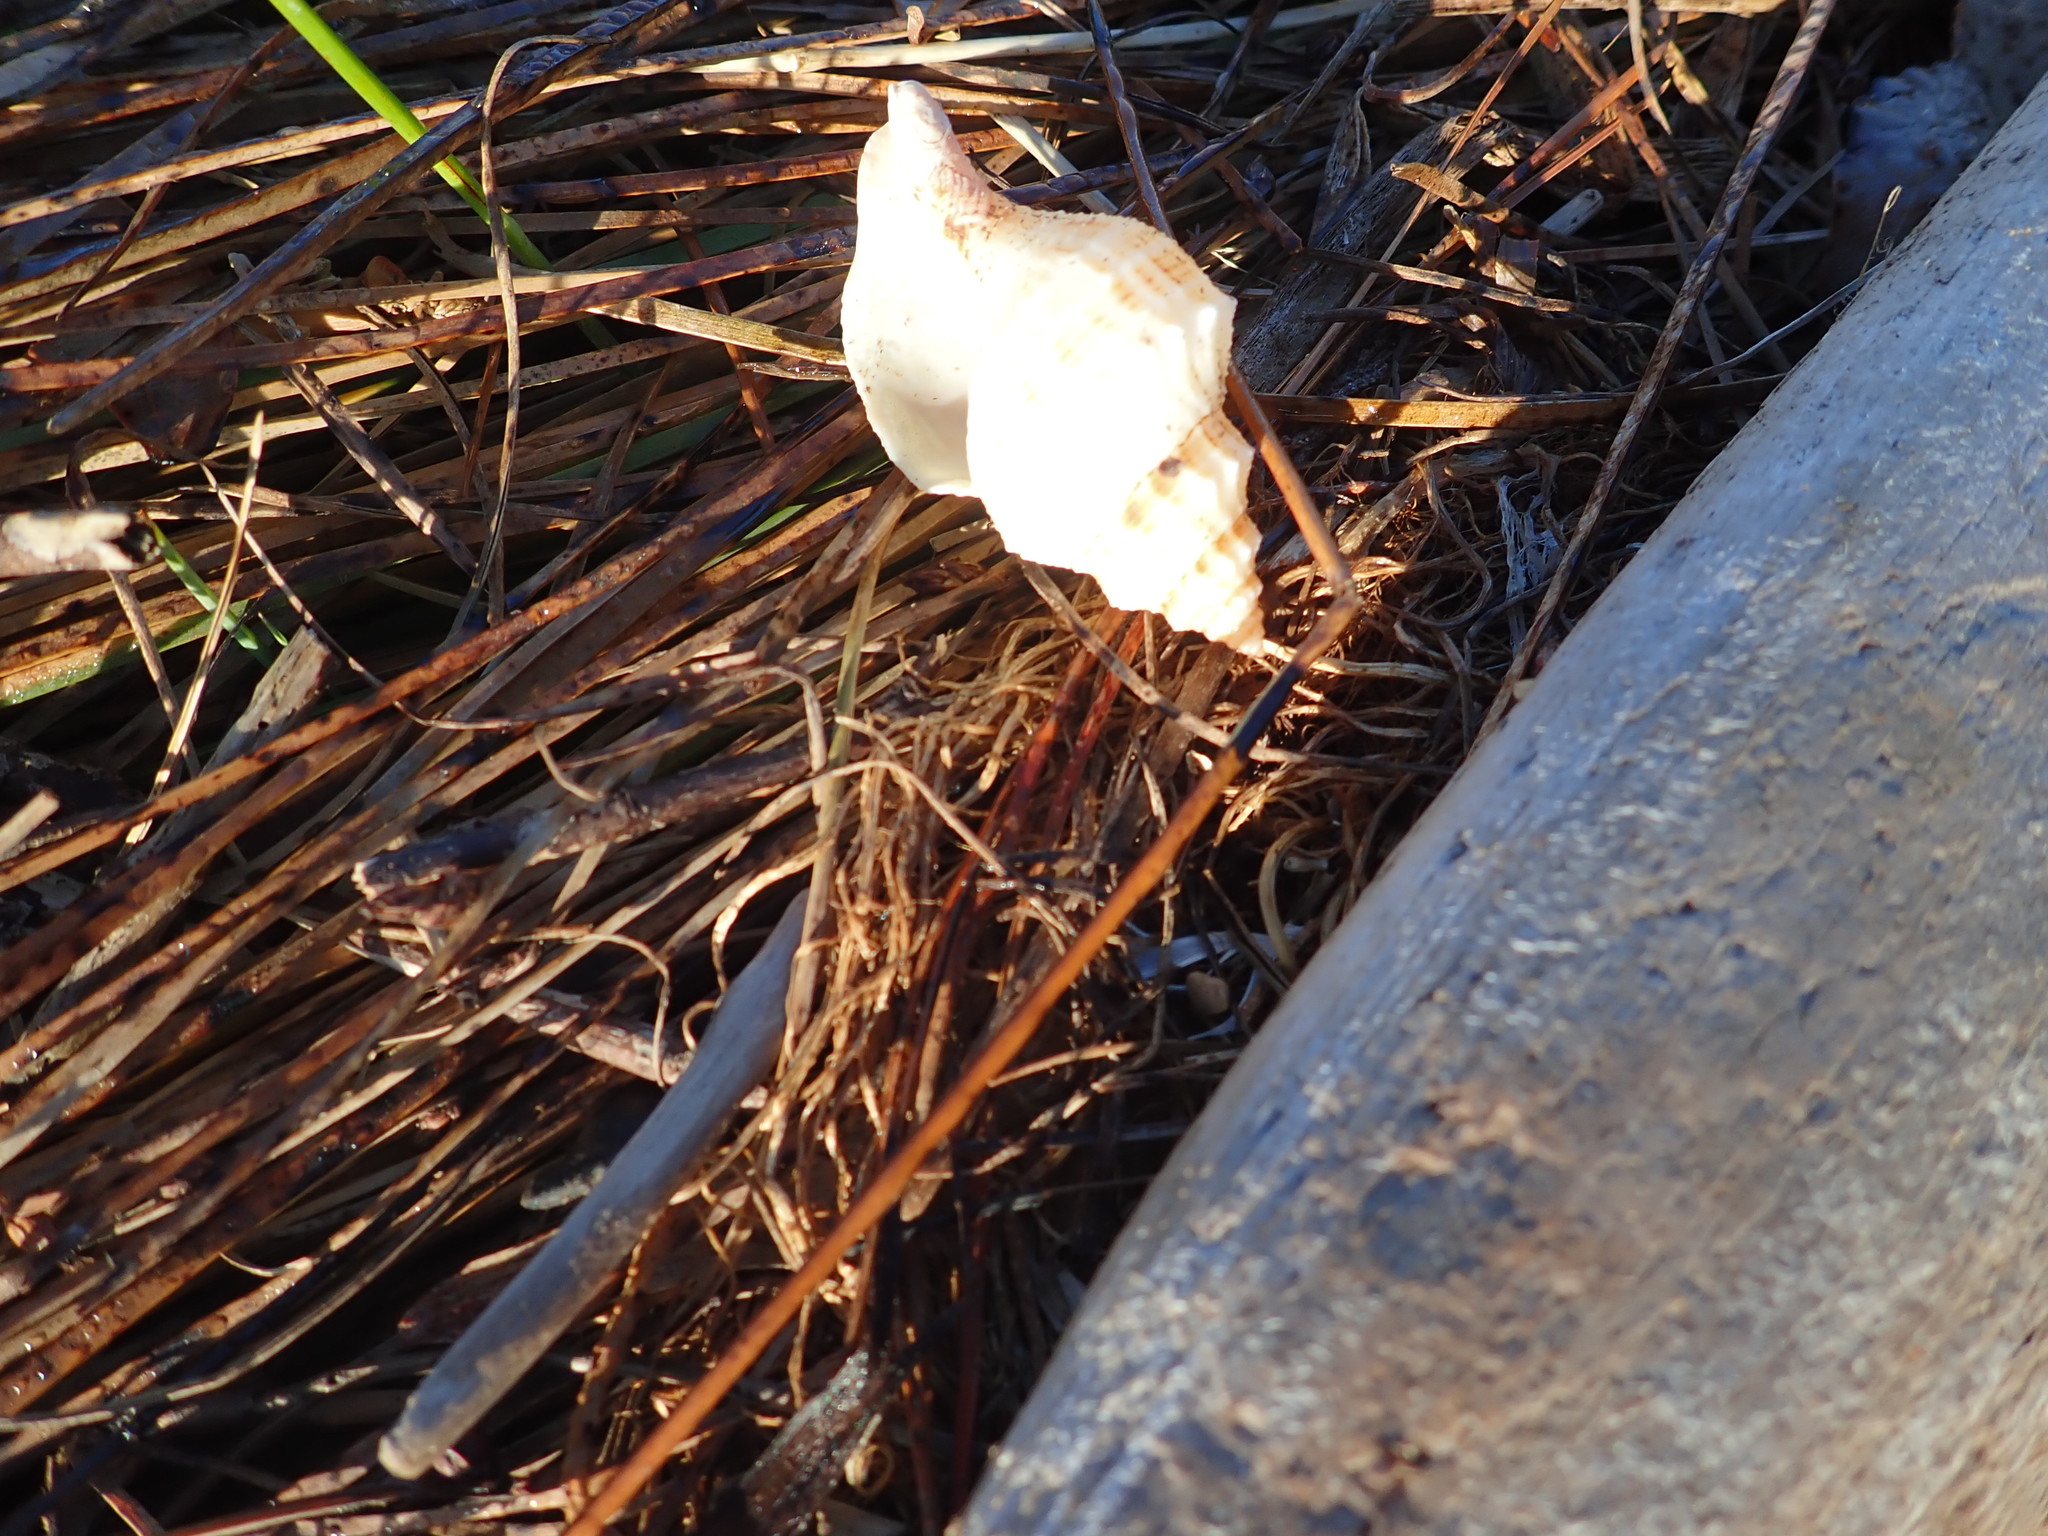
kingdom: Animalia
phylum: Mollusca
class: Gastropoda
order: Neogastropoda
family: Prosiphonidae
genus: Austrofusus
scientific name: Austrofusus glans
